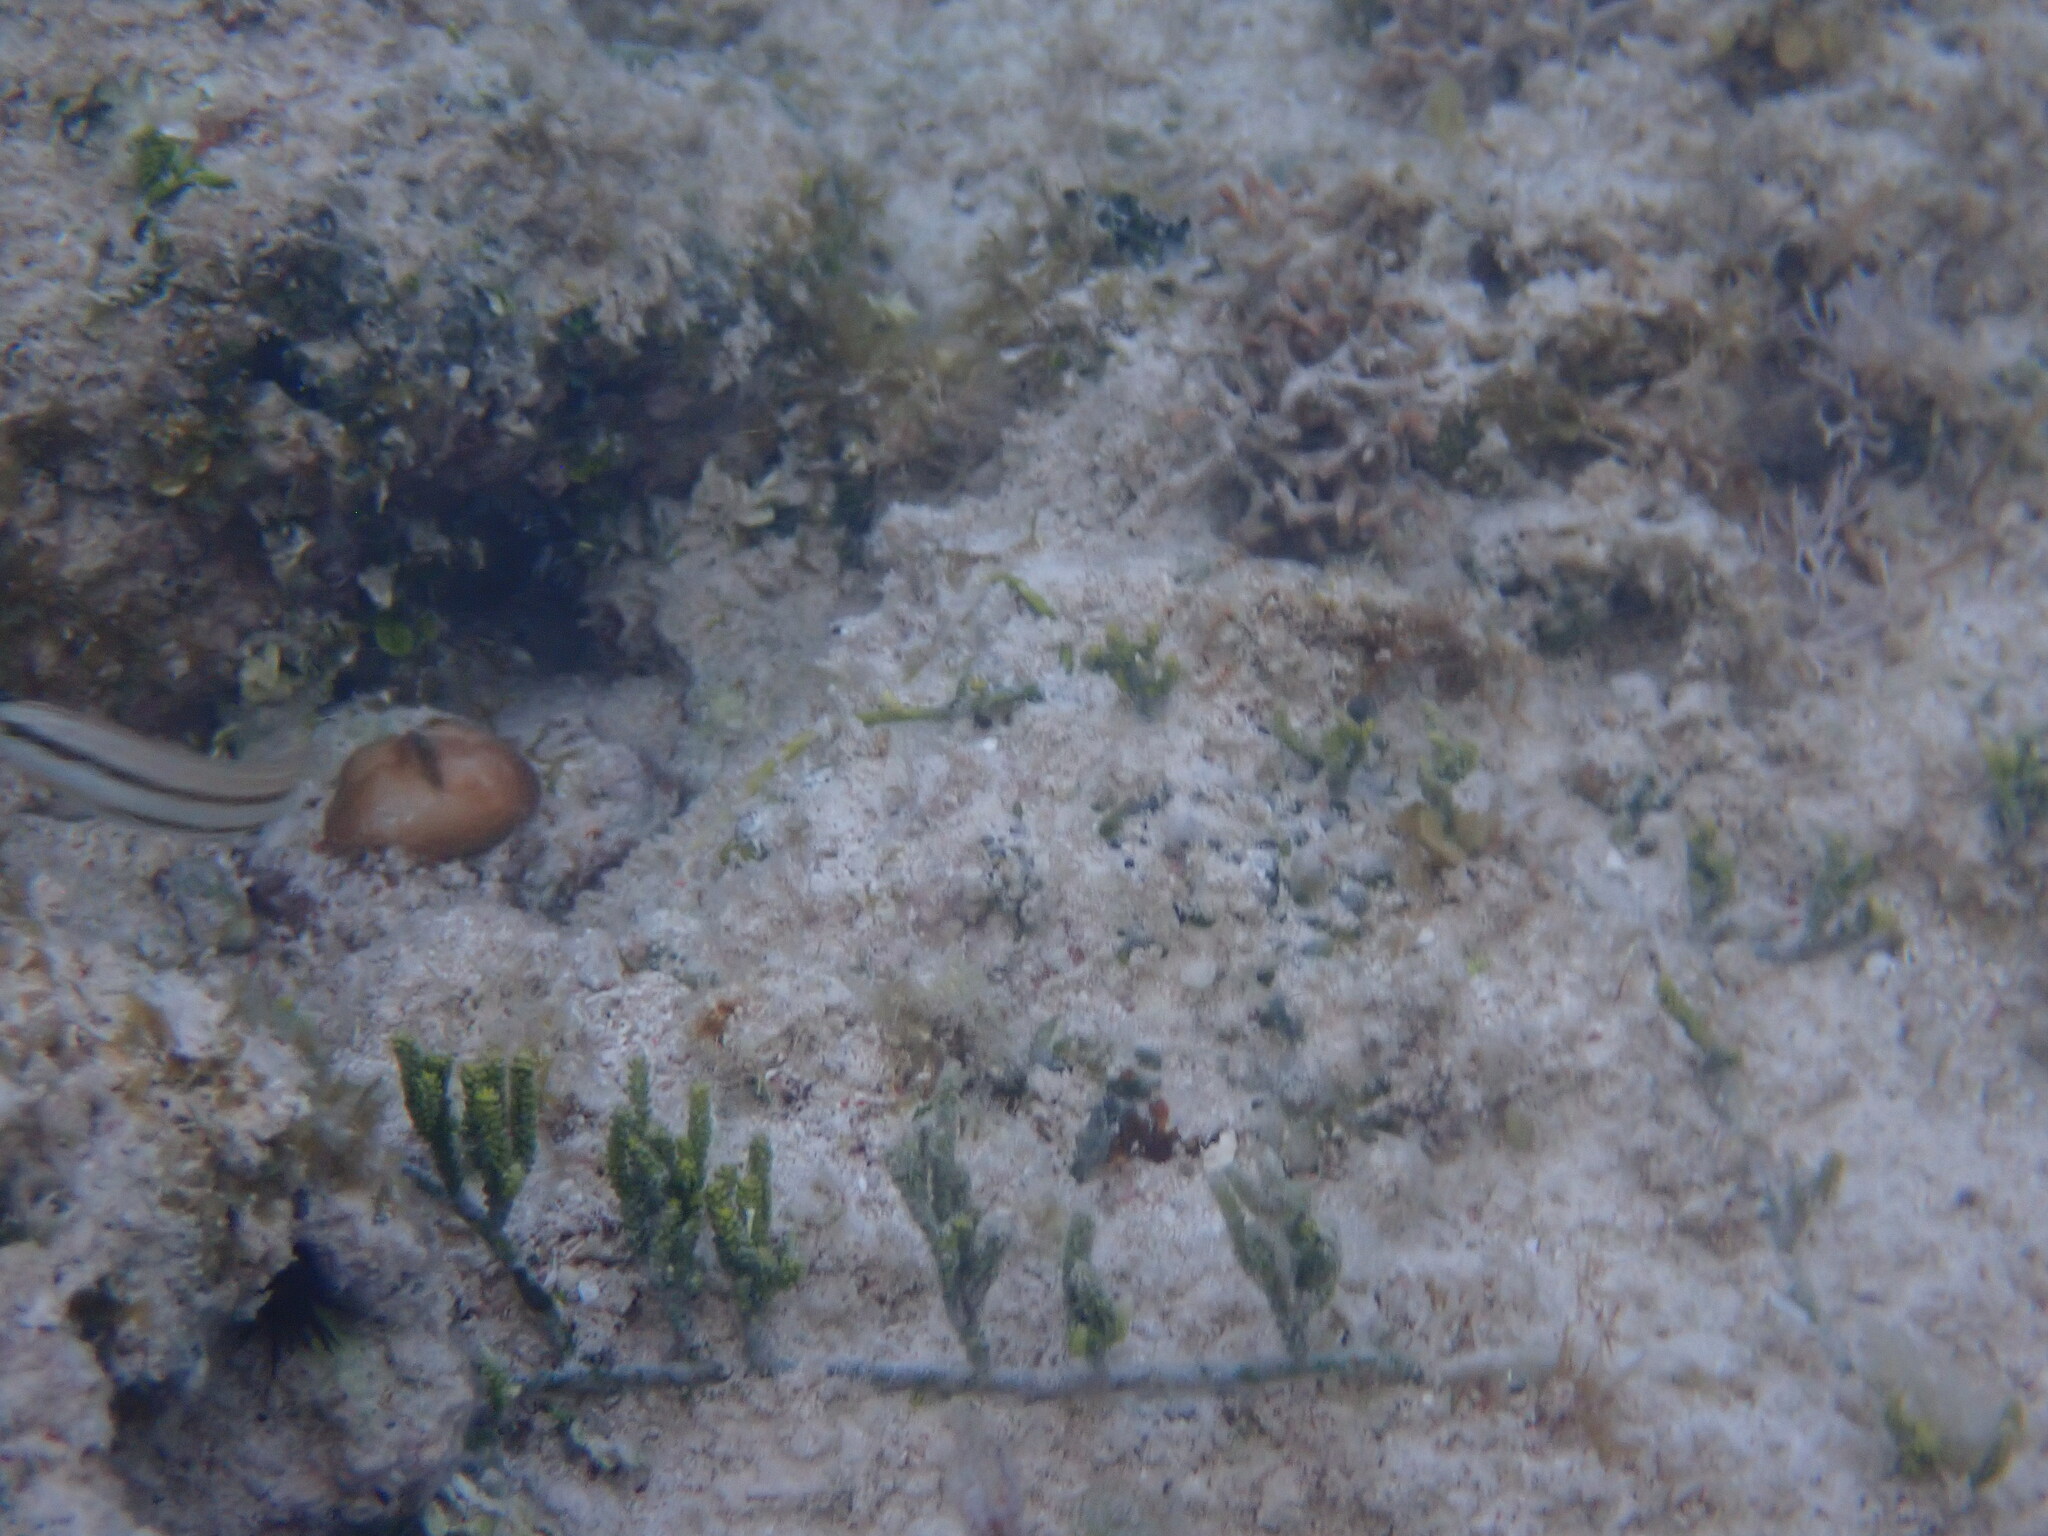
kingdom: Plantae
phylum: Chlorophyta
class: Ulvophyceae
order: Bryopsidales
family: Caulerpaceae
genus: Caulerpa
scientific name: Caulerpa cupressoides
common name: Cactus tree algae
